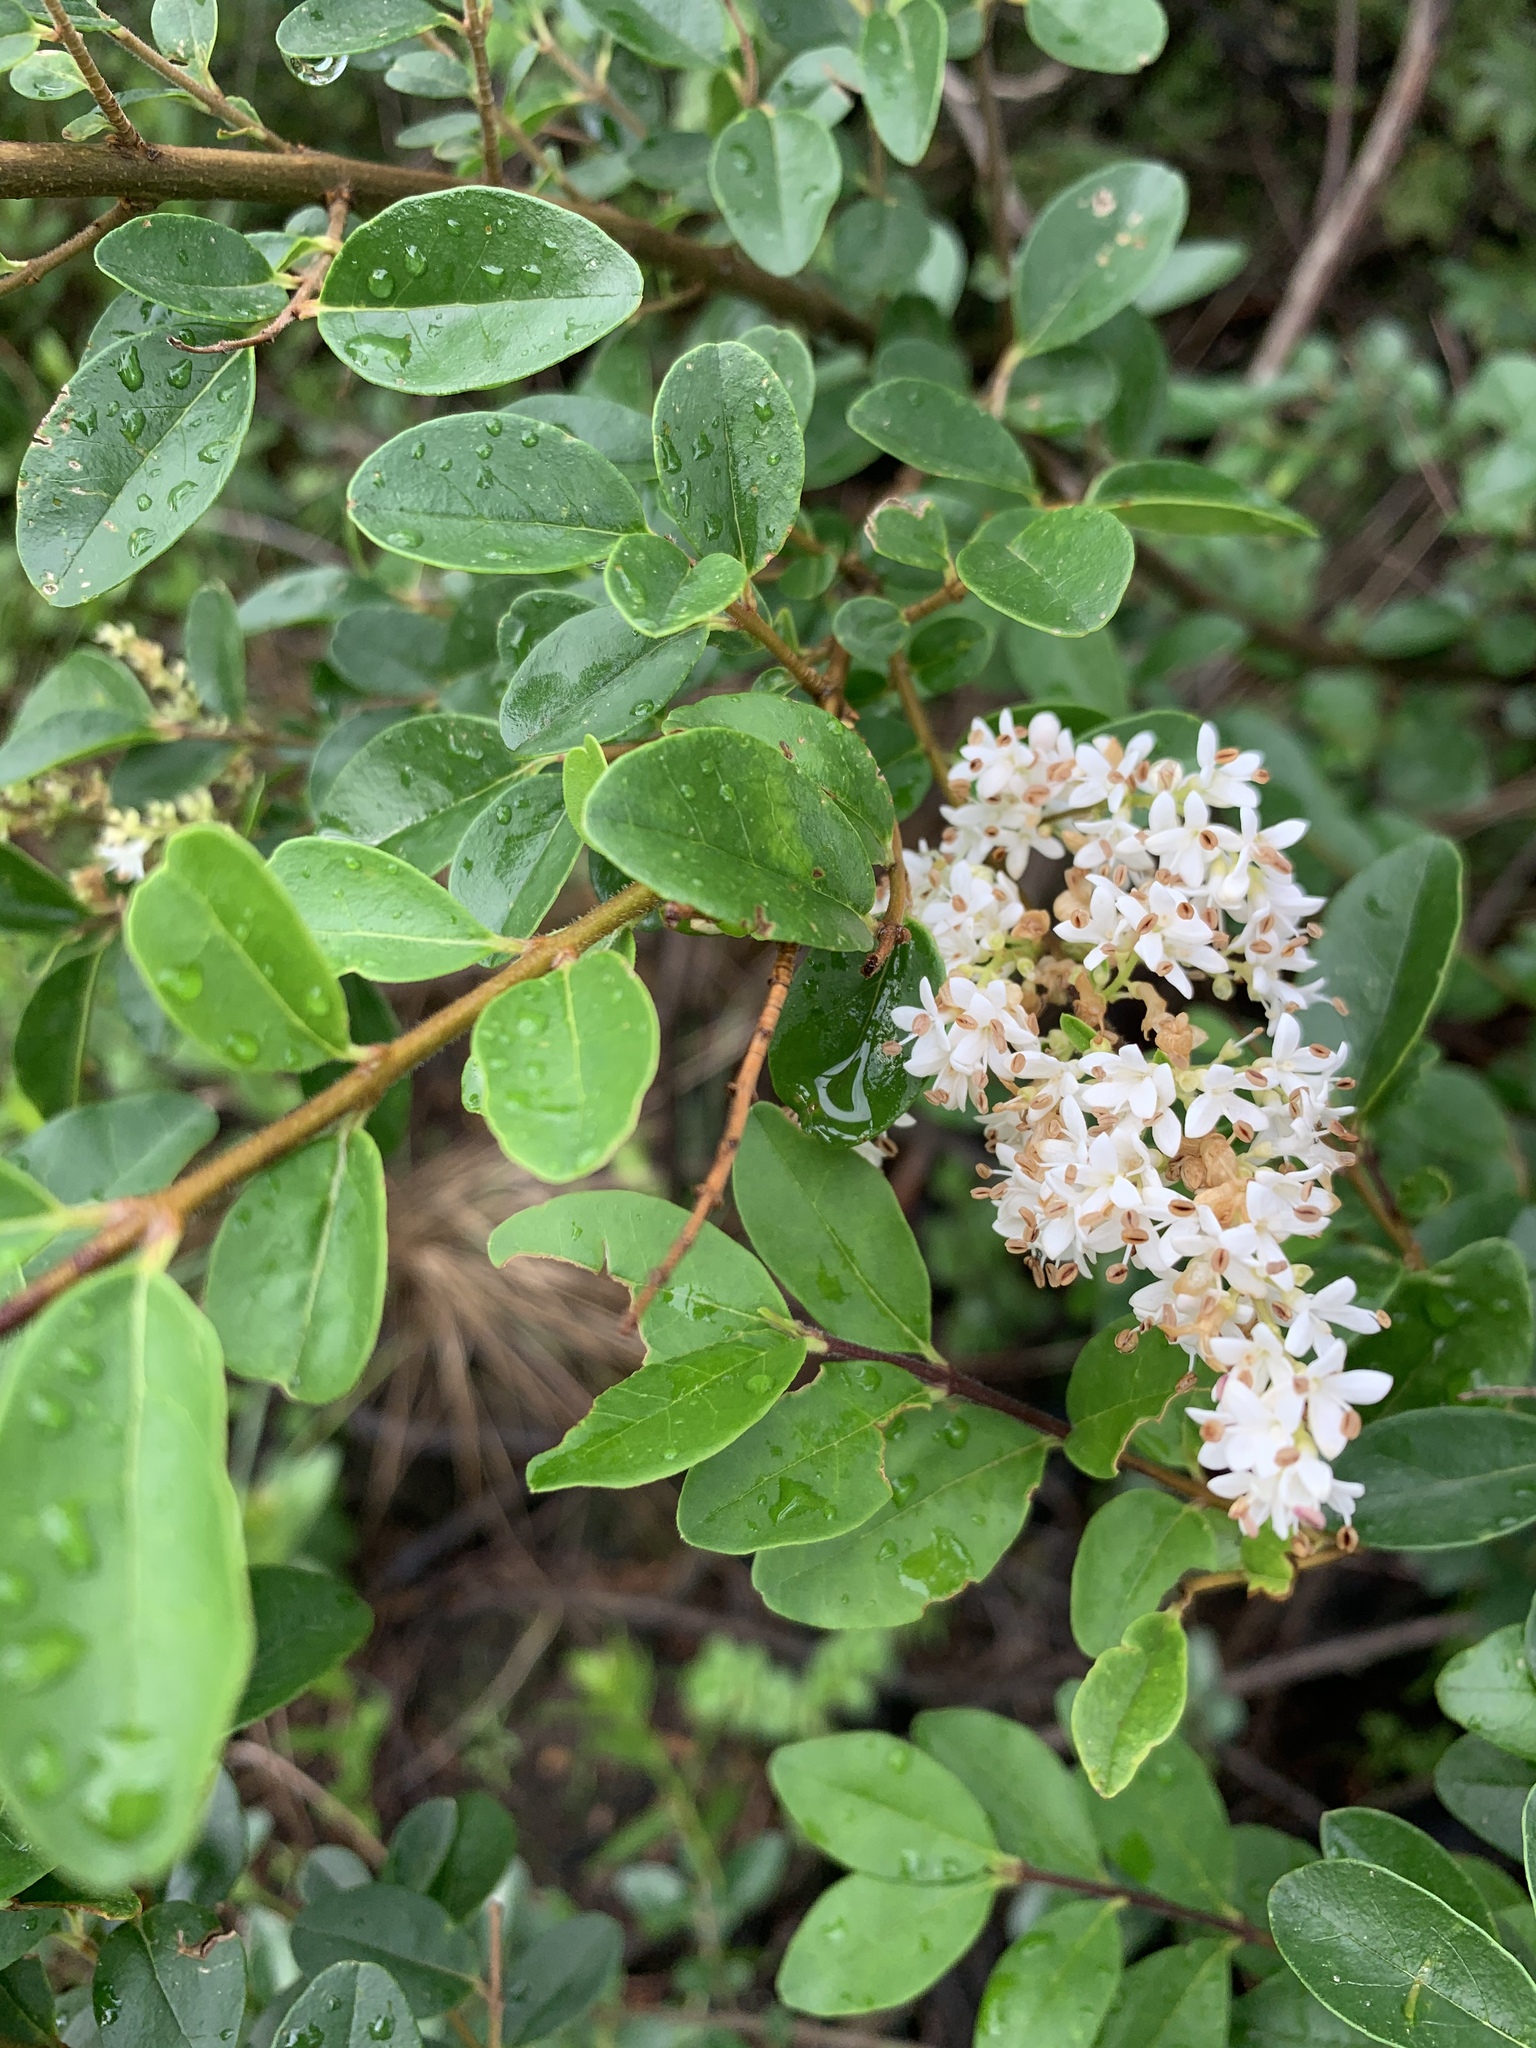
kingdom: Plantae
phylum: Tracheophyta
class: Magnoliopsida
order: Lamiales
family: Oleaceae
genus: Ligustrum
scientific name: Ligustrum sinense
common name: Chinese privet
